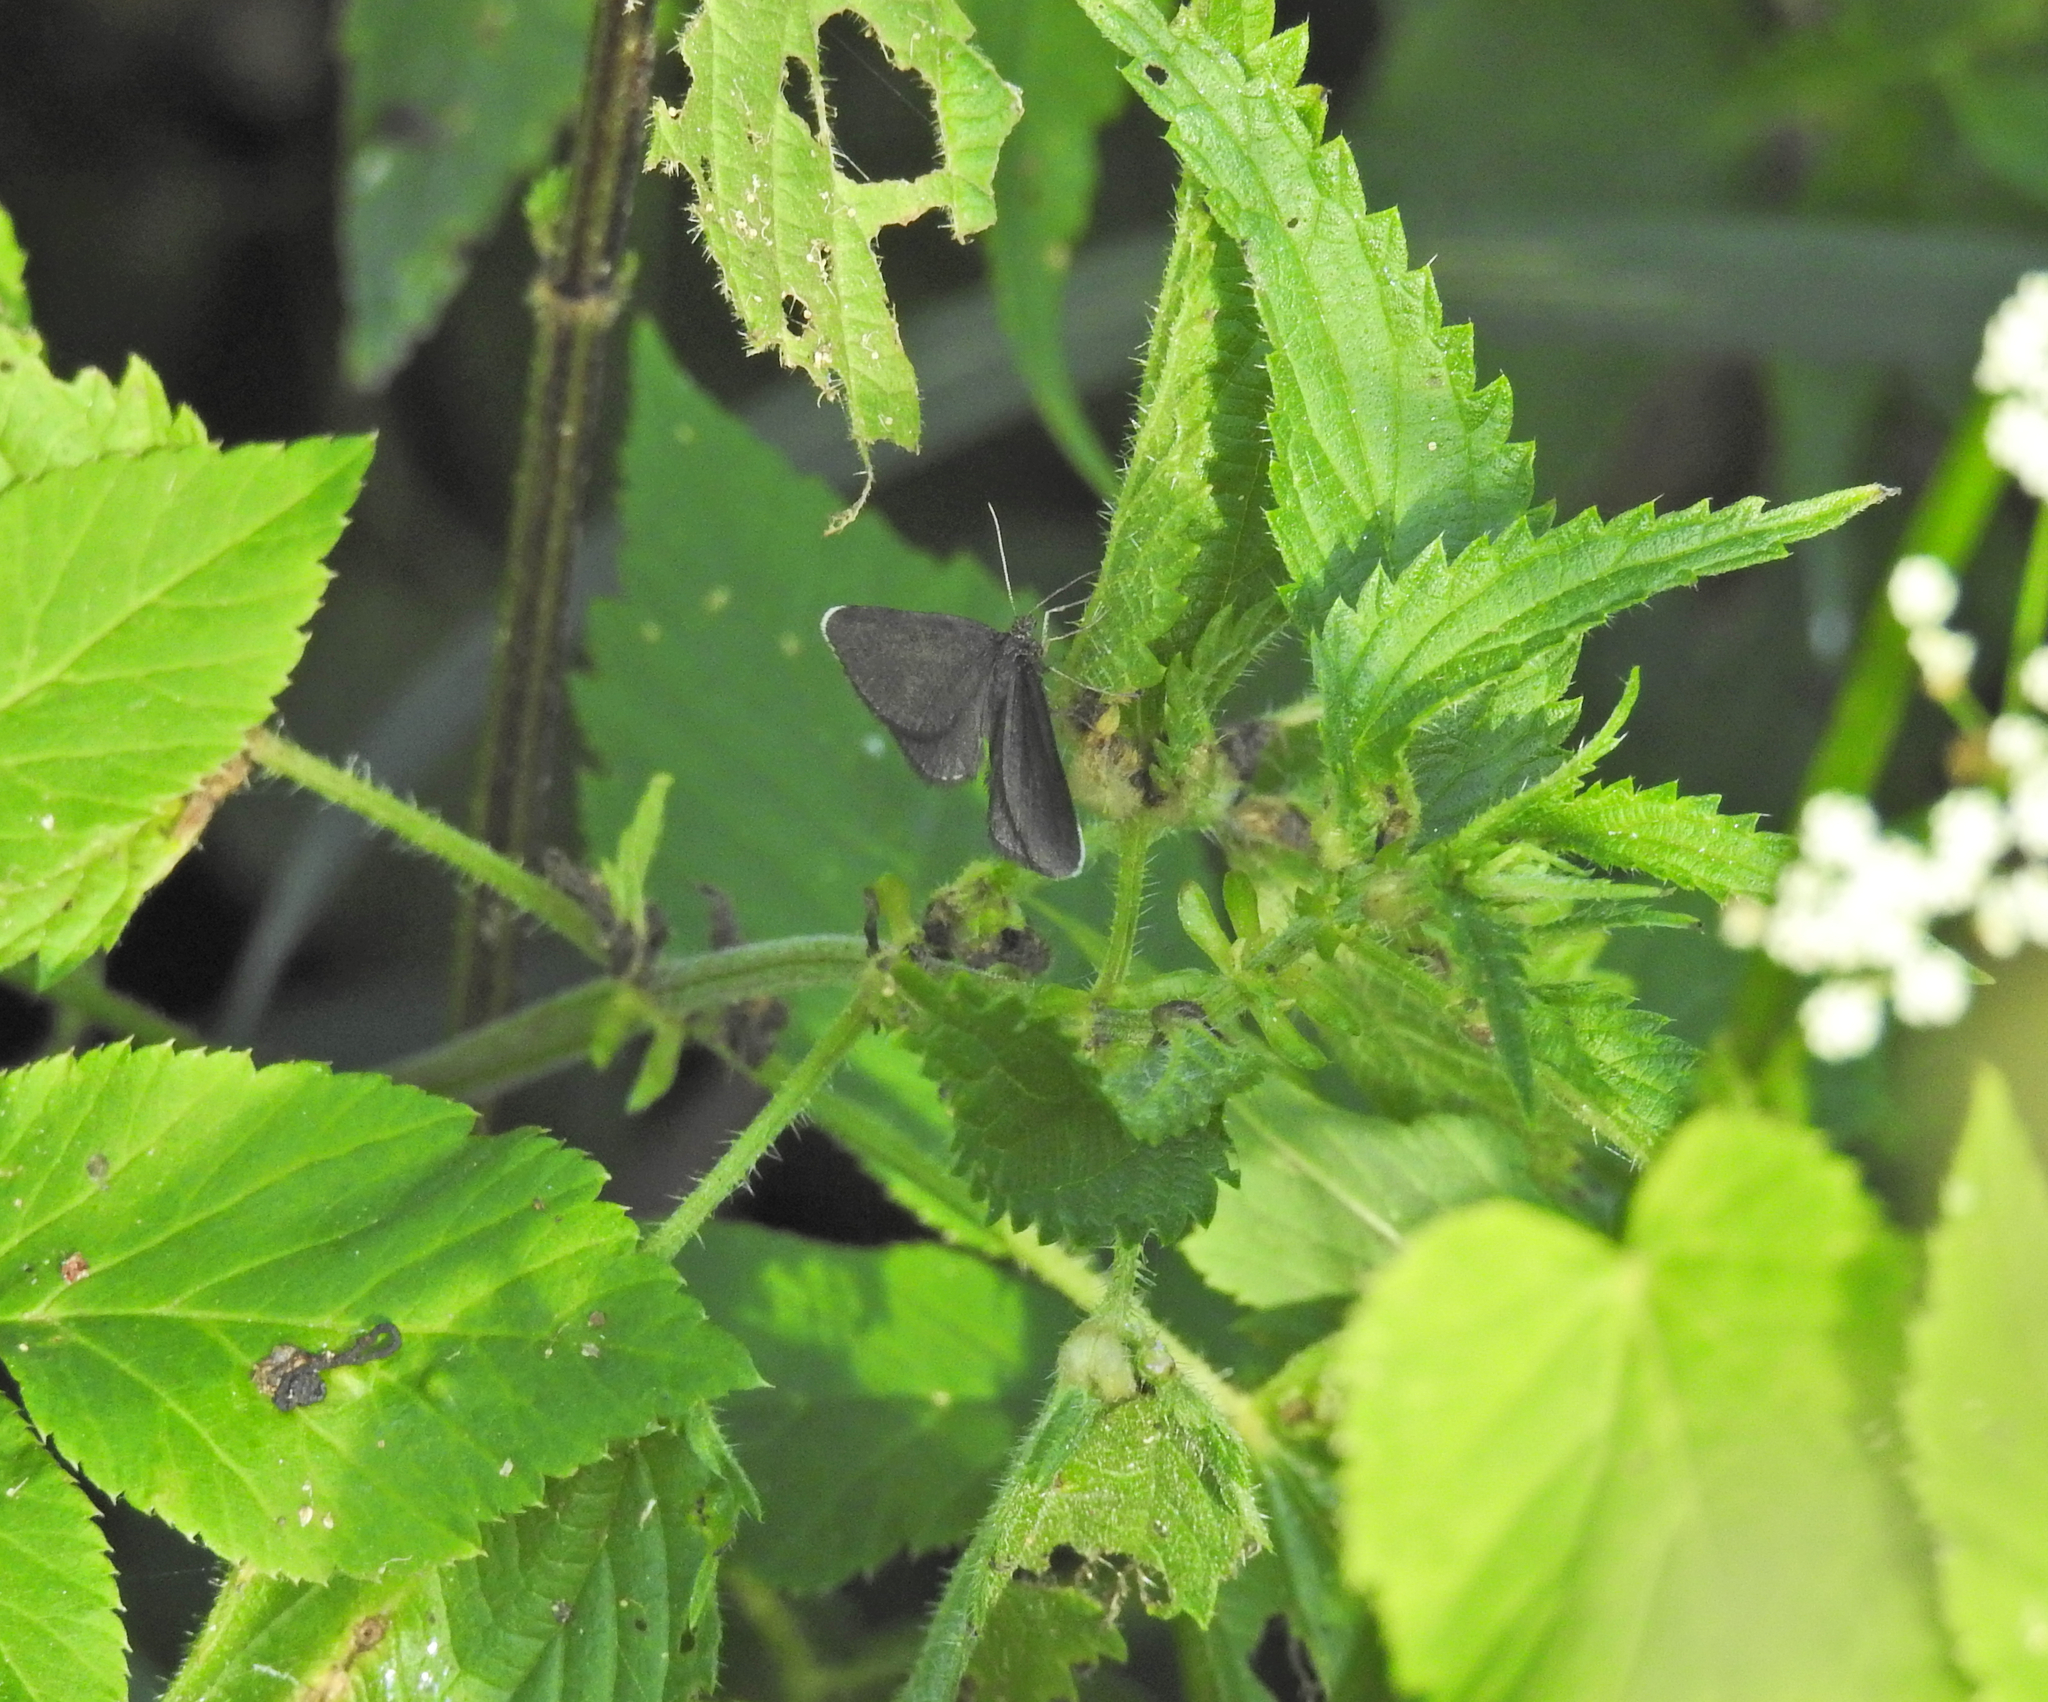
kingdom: Animalia
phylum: Arthropoda
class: Insecta
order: Lepidoptera
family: Geometridae
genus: Odezia
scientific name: Odezia atrata
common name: Chimney sweeper
